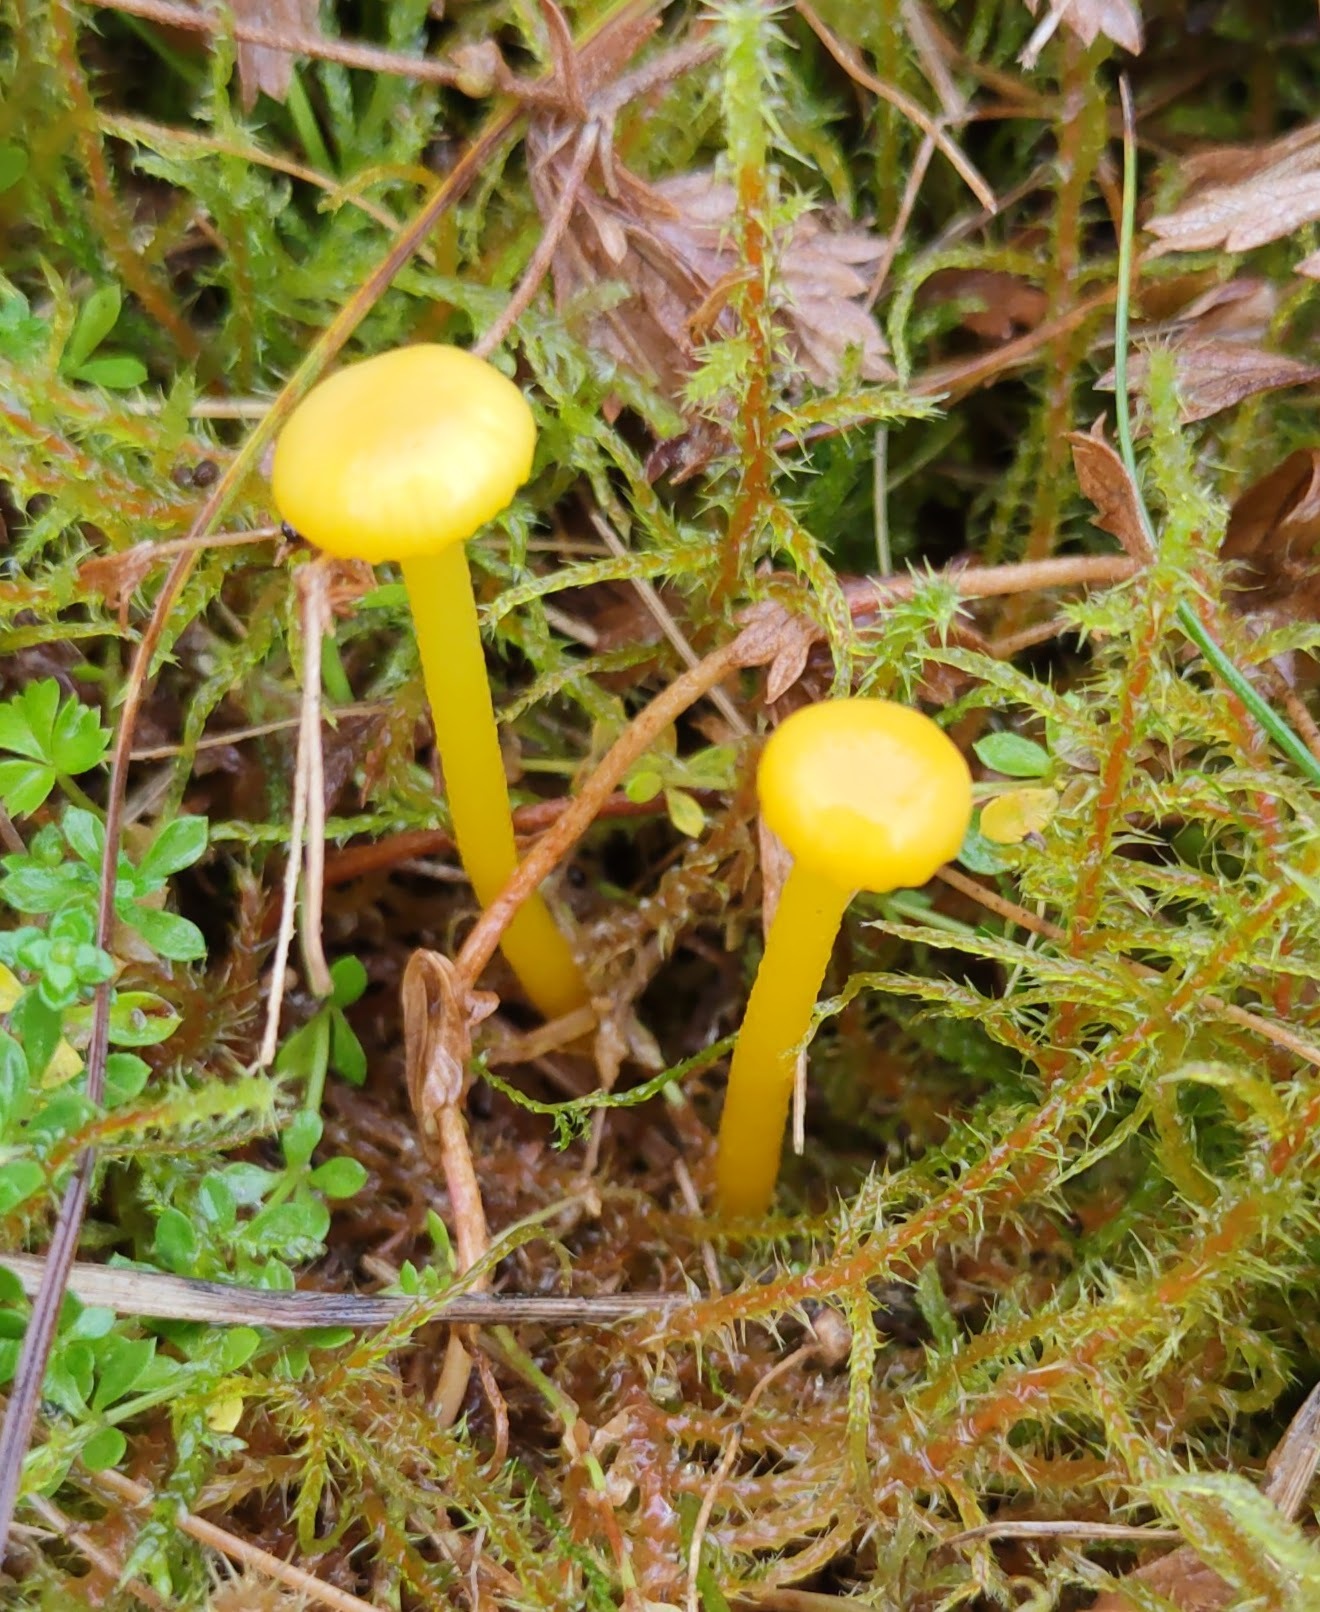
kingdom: Fungi
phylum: Basidiomycota
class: Agaricomycetes
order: Agaricales
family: Hygrophoraceae
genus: Gloioxanthomyces
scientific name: Gloioxanthomyces vitellinus
